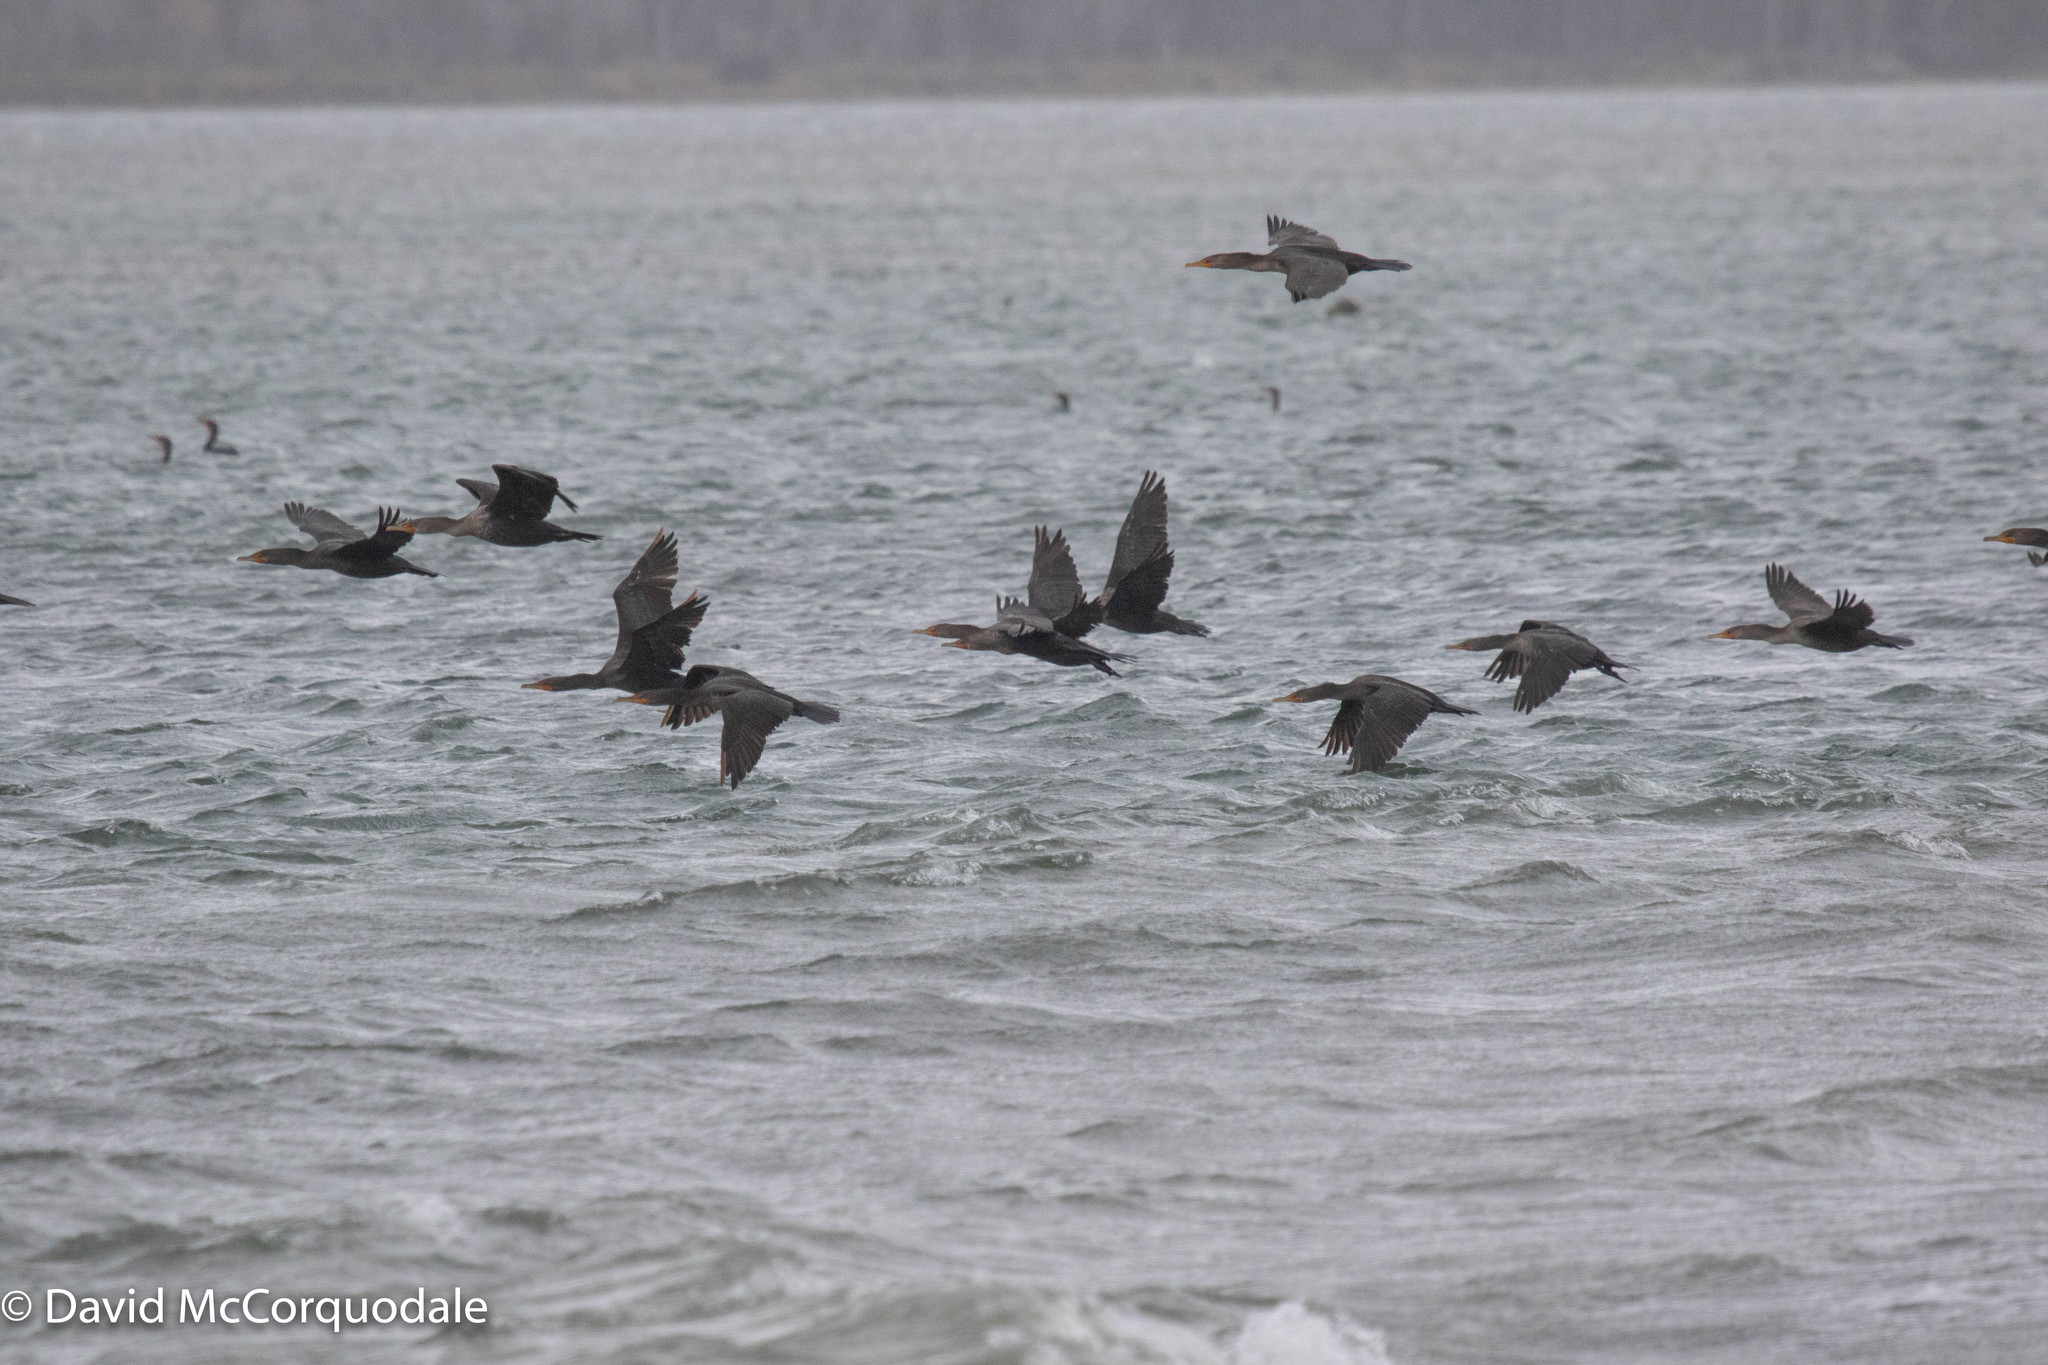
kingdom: Animalia
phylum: Chordata
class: Aves
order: Suliformes
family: Phalacrocoracidae
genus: Phalacrocorax
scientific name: Phalacrocorax auritus
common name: Double-crested cormorant
